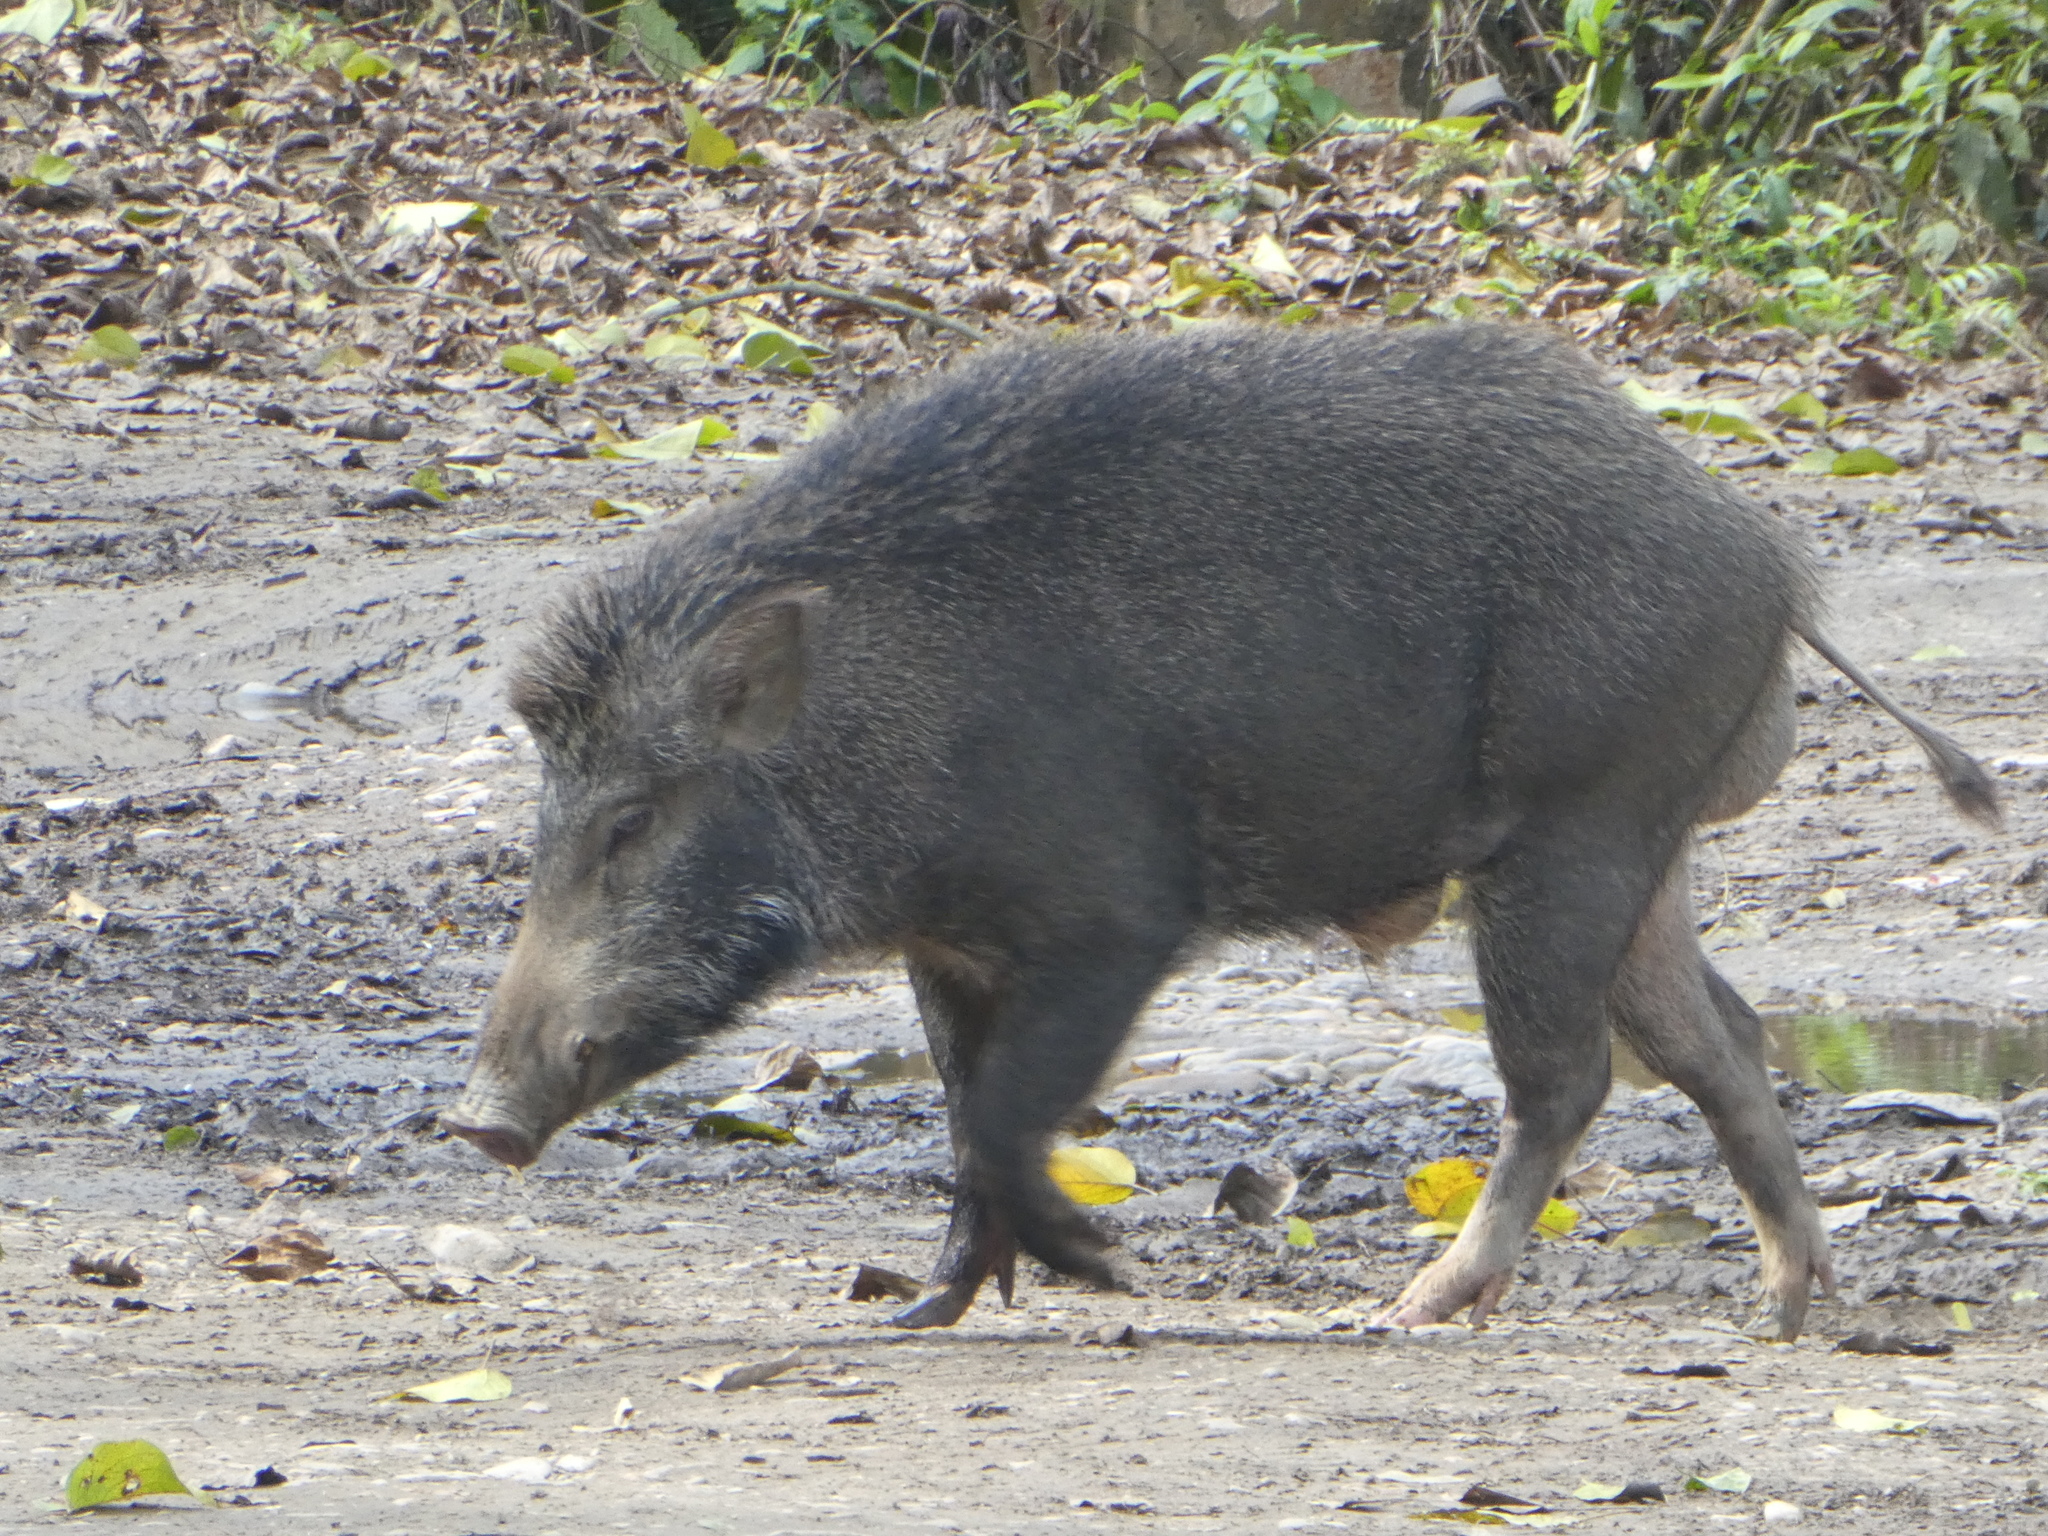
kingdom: Animalia
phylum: Chordata
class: Mammalia
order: Artiodactyla
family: Suidae
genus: Sus
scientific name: Sus scrofa
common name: Wild boar
